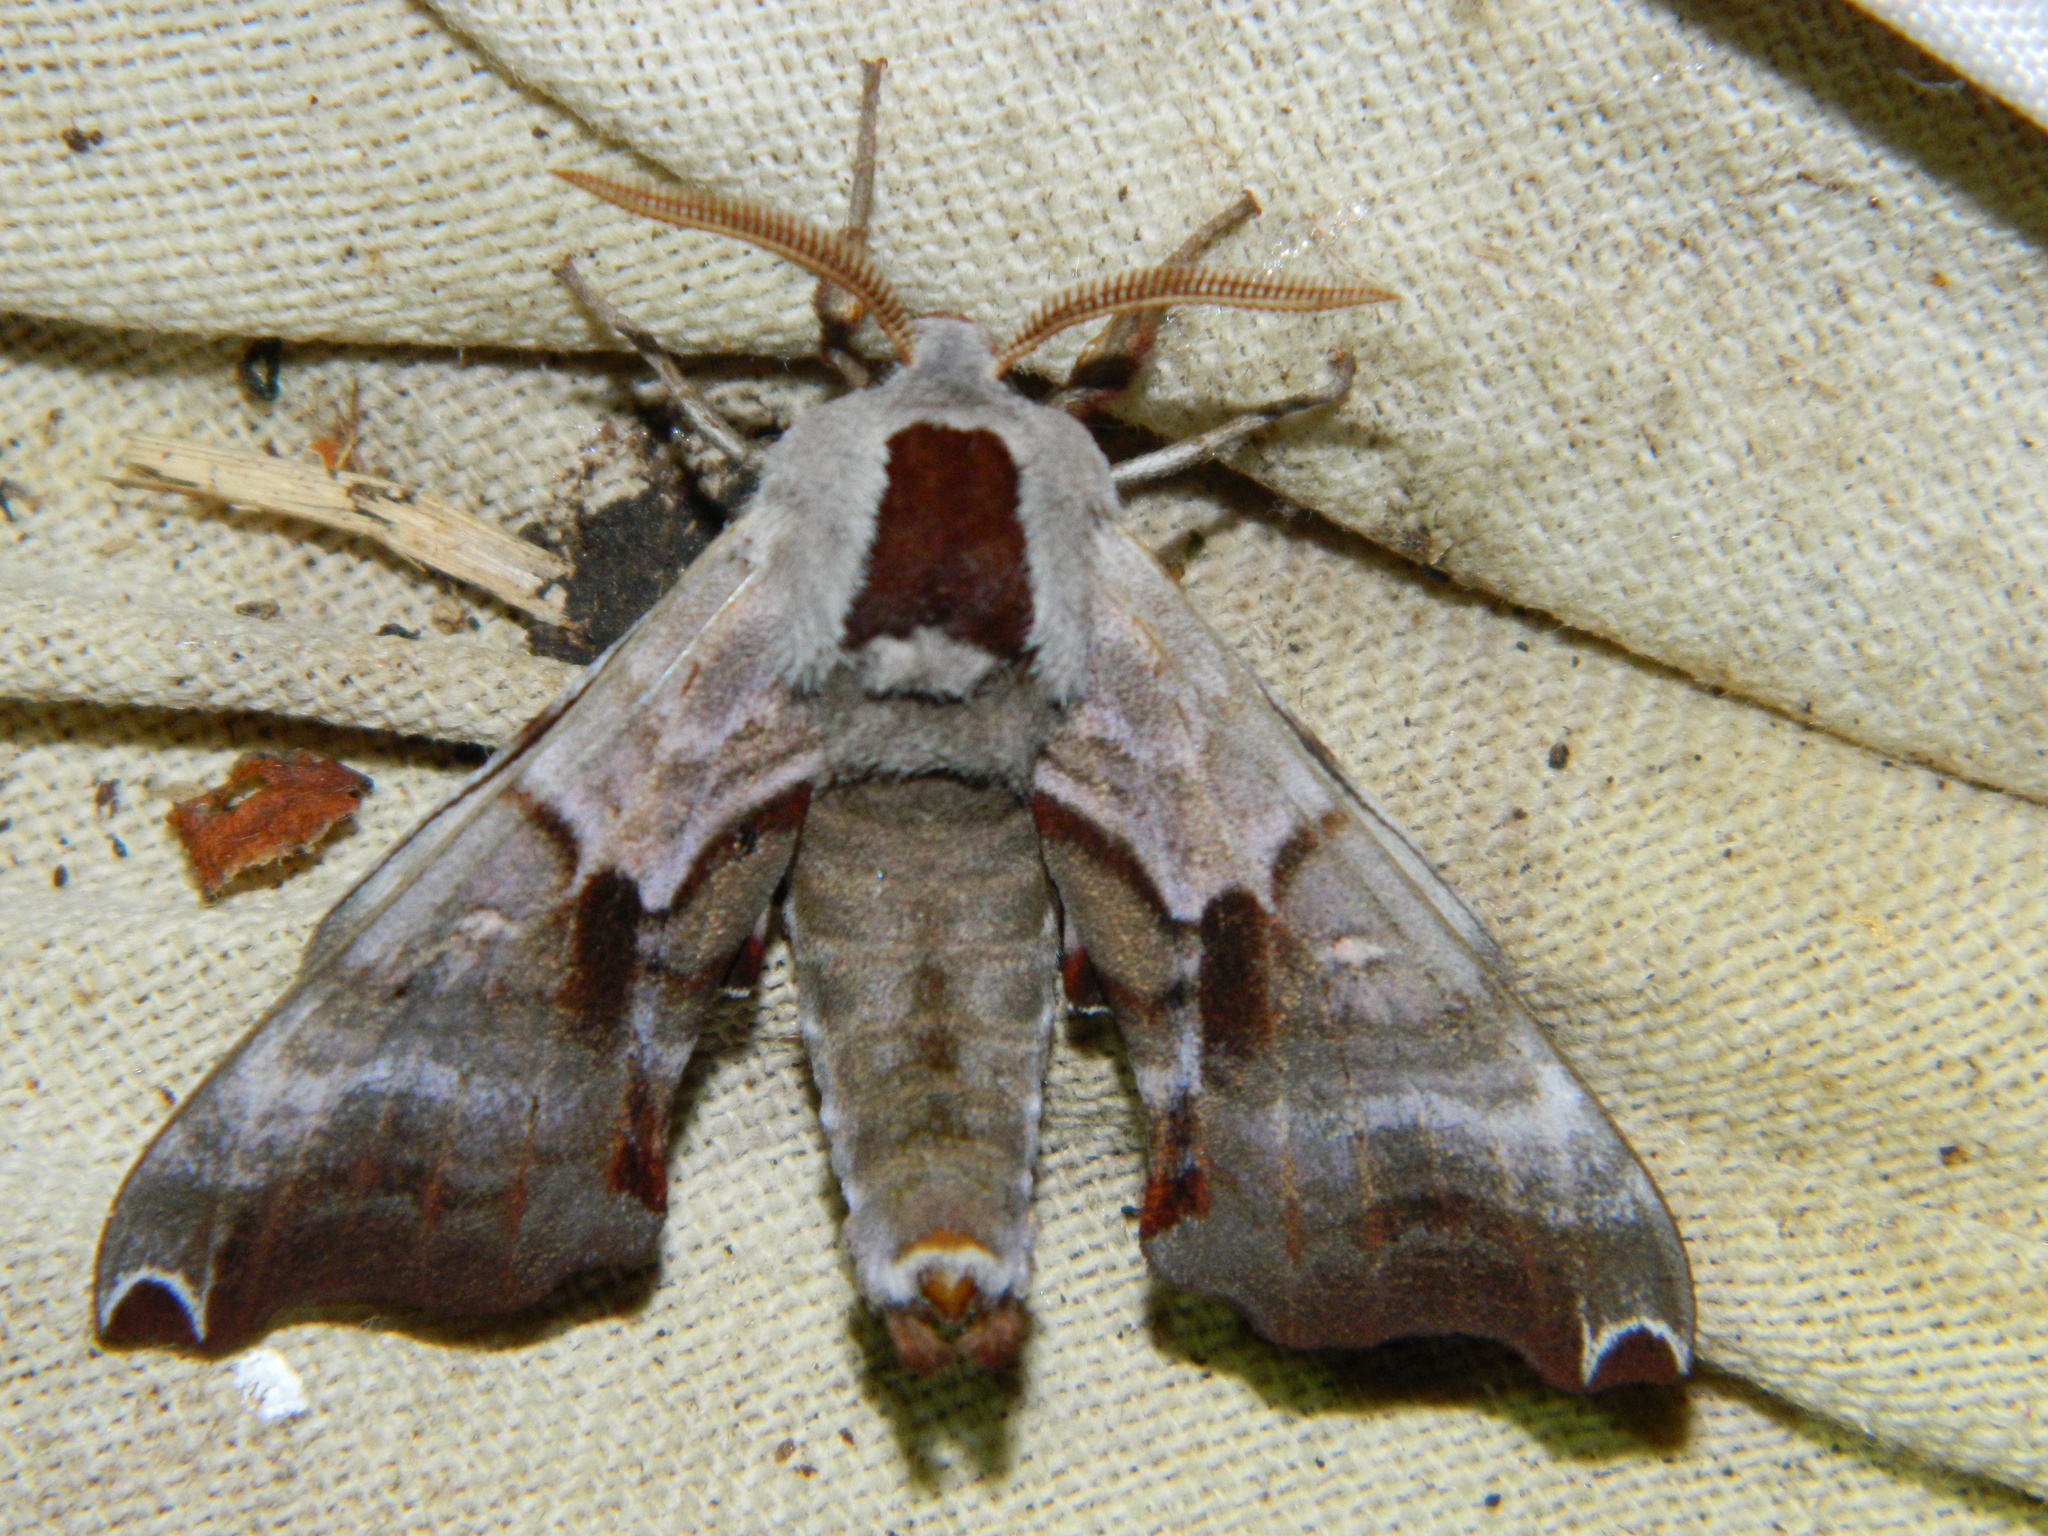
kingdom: Animalia
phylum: Arthropoda
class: Insecta
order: Lepidoptera
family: Sphingidae
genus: Smerinthus
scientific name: Smerinthus jamaicensis
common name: Twin spotted sphinx
